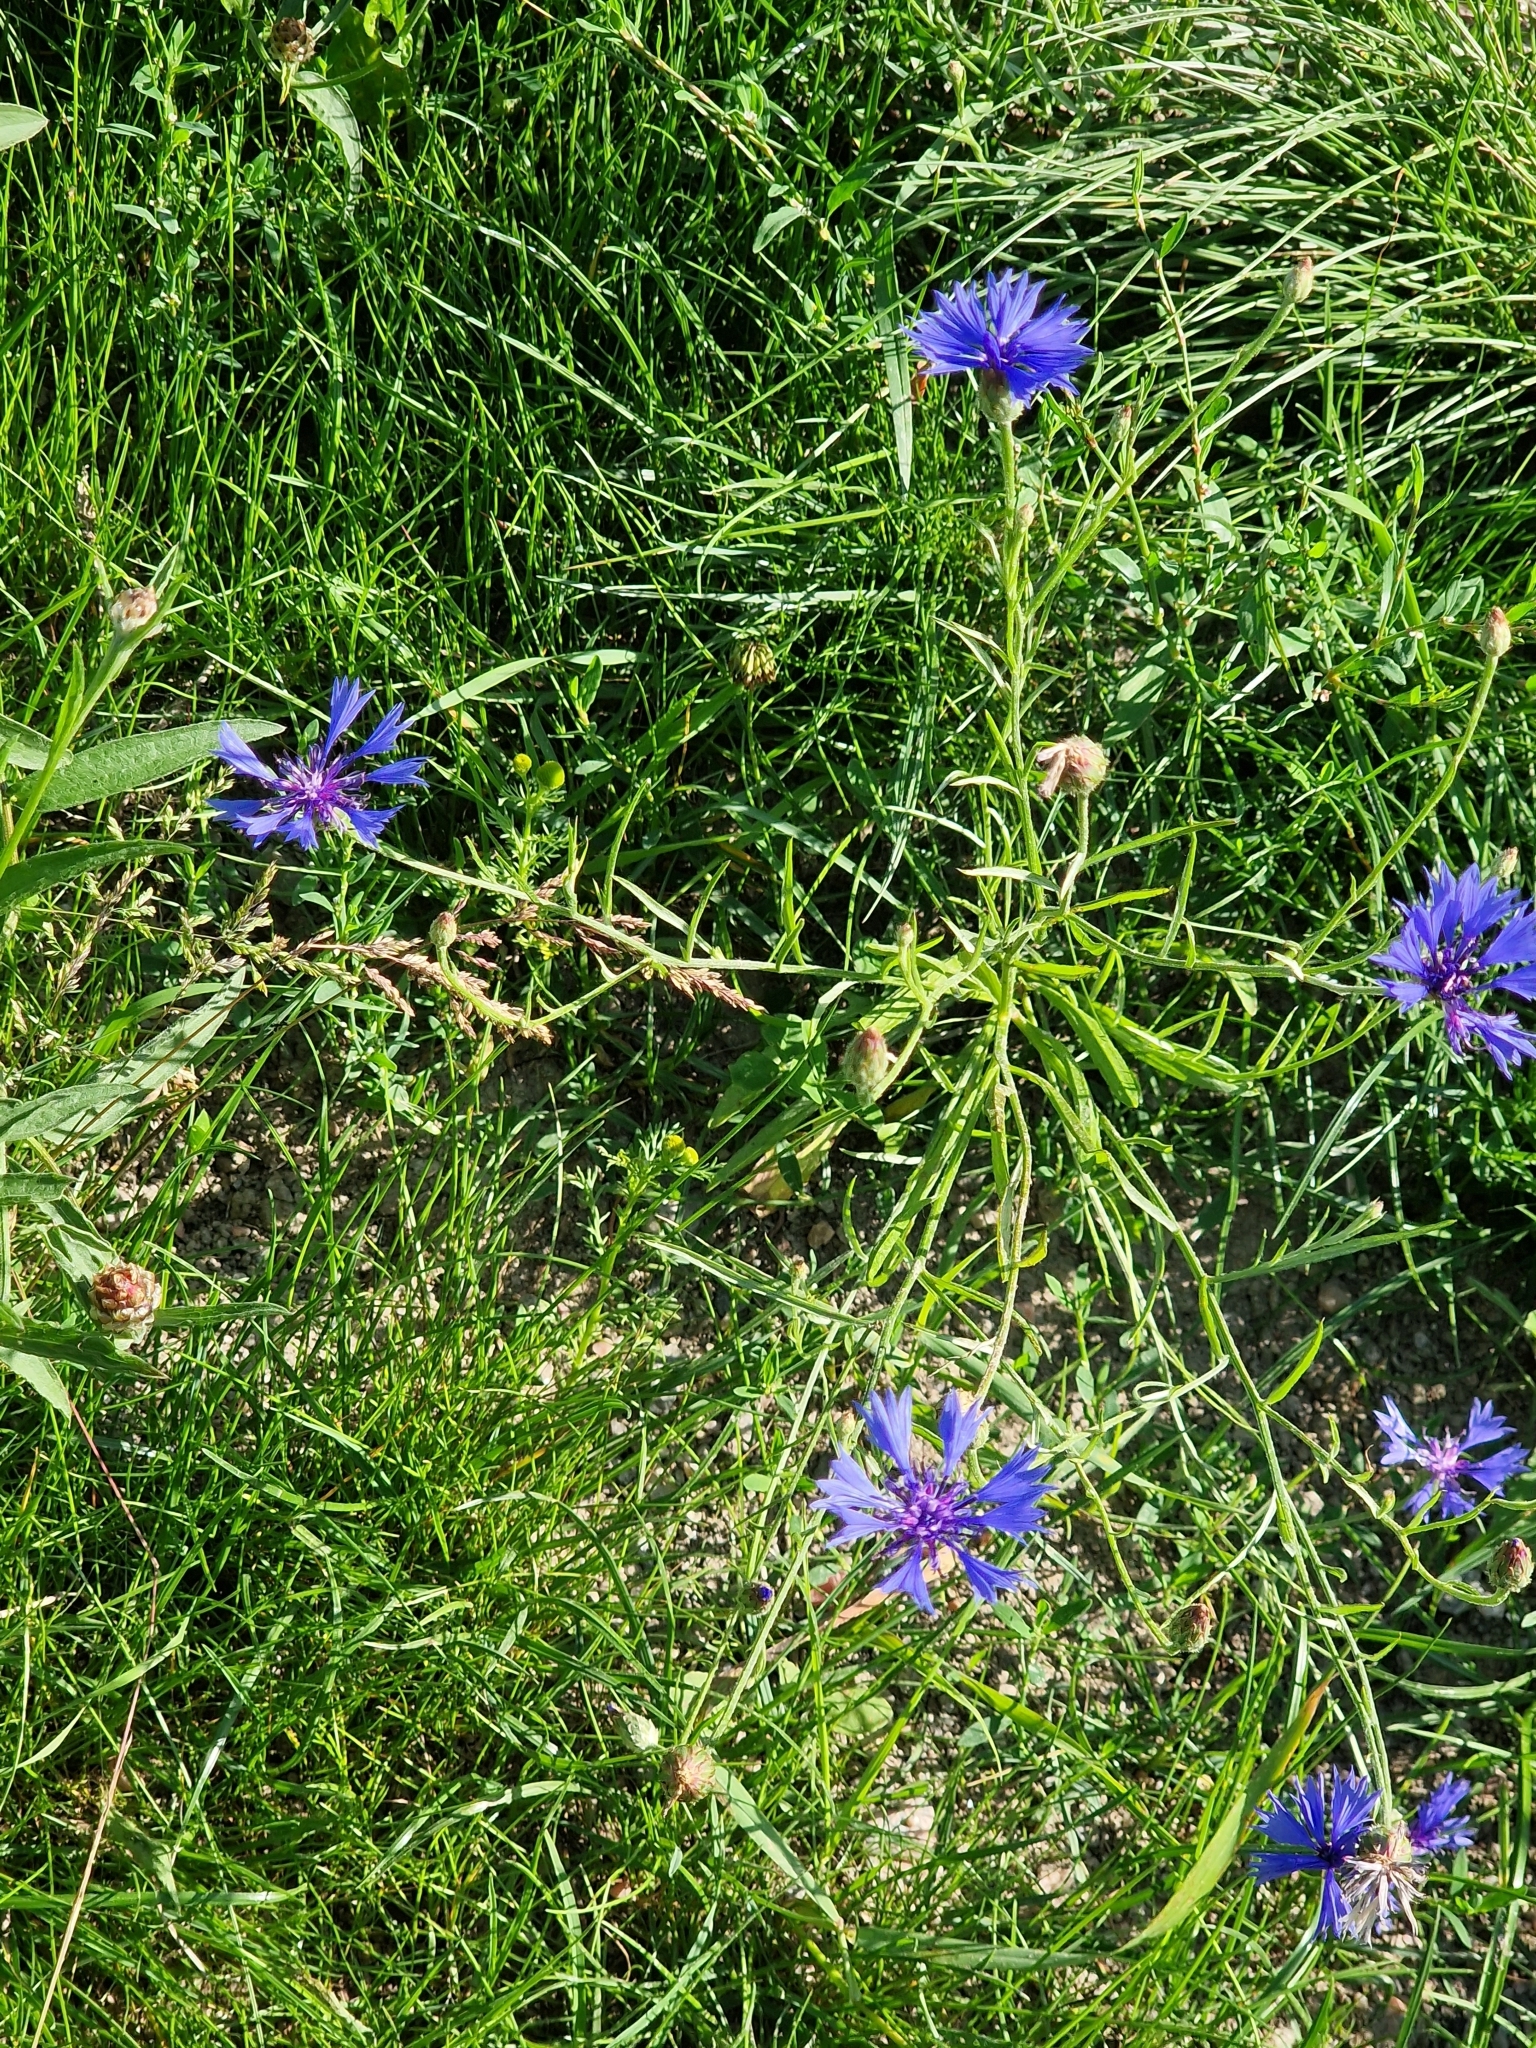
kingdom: Plantae
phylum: Tracheophyta
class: Magnoliopsida
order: Asterales
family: Asteraceae
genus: Centaurea
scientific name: Centaurea cyanus
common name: Cornflower
